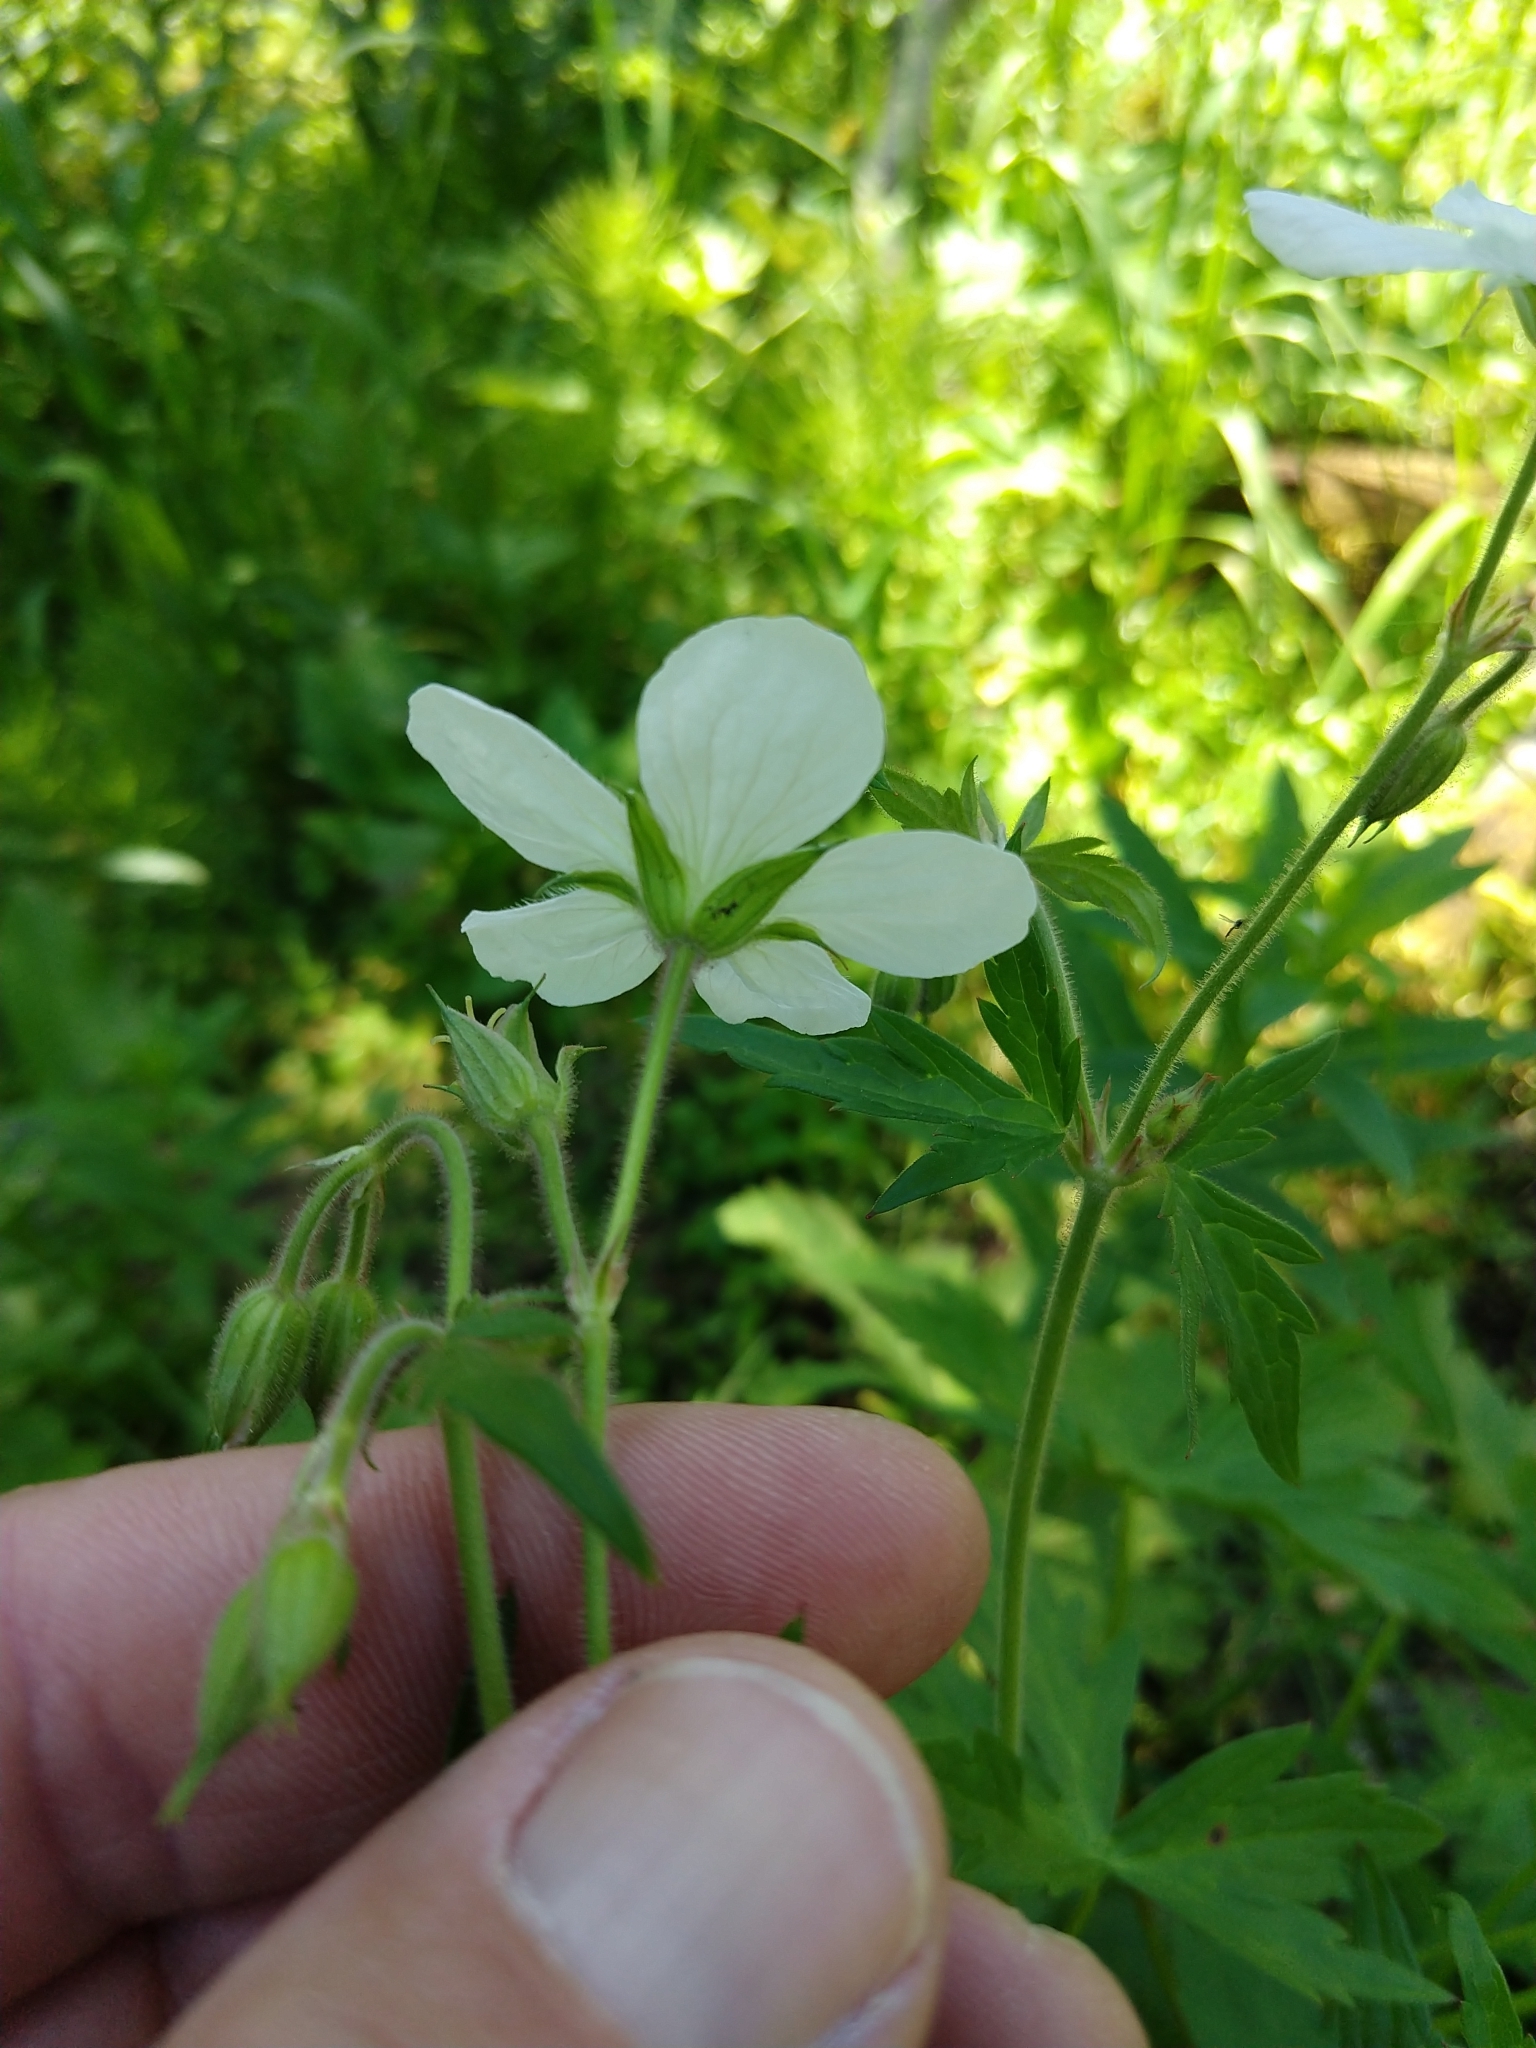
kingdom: Plantae
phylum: Tracheophyta
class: Magnoliopsida
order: Geraniales
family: Geraniaceae
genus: Geranium
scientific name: Geranium richardsonii
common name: Richardson's crane's-bill
